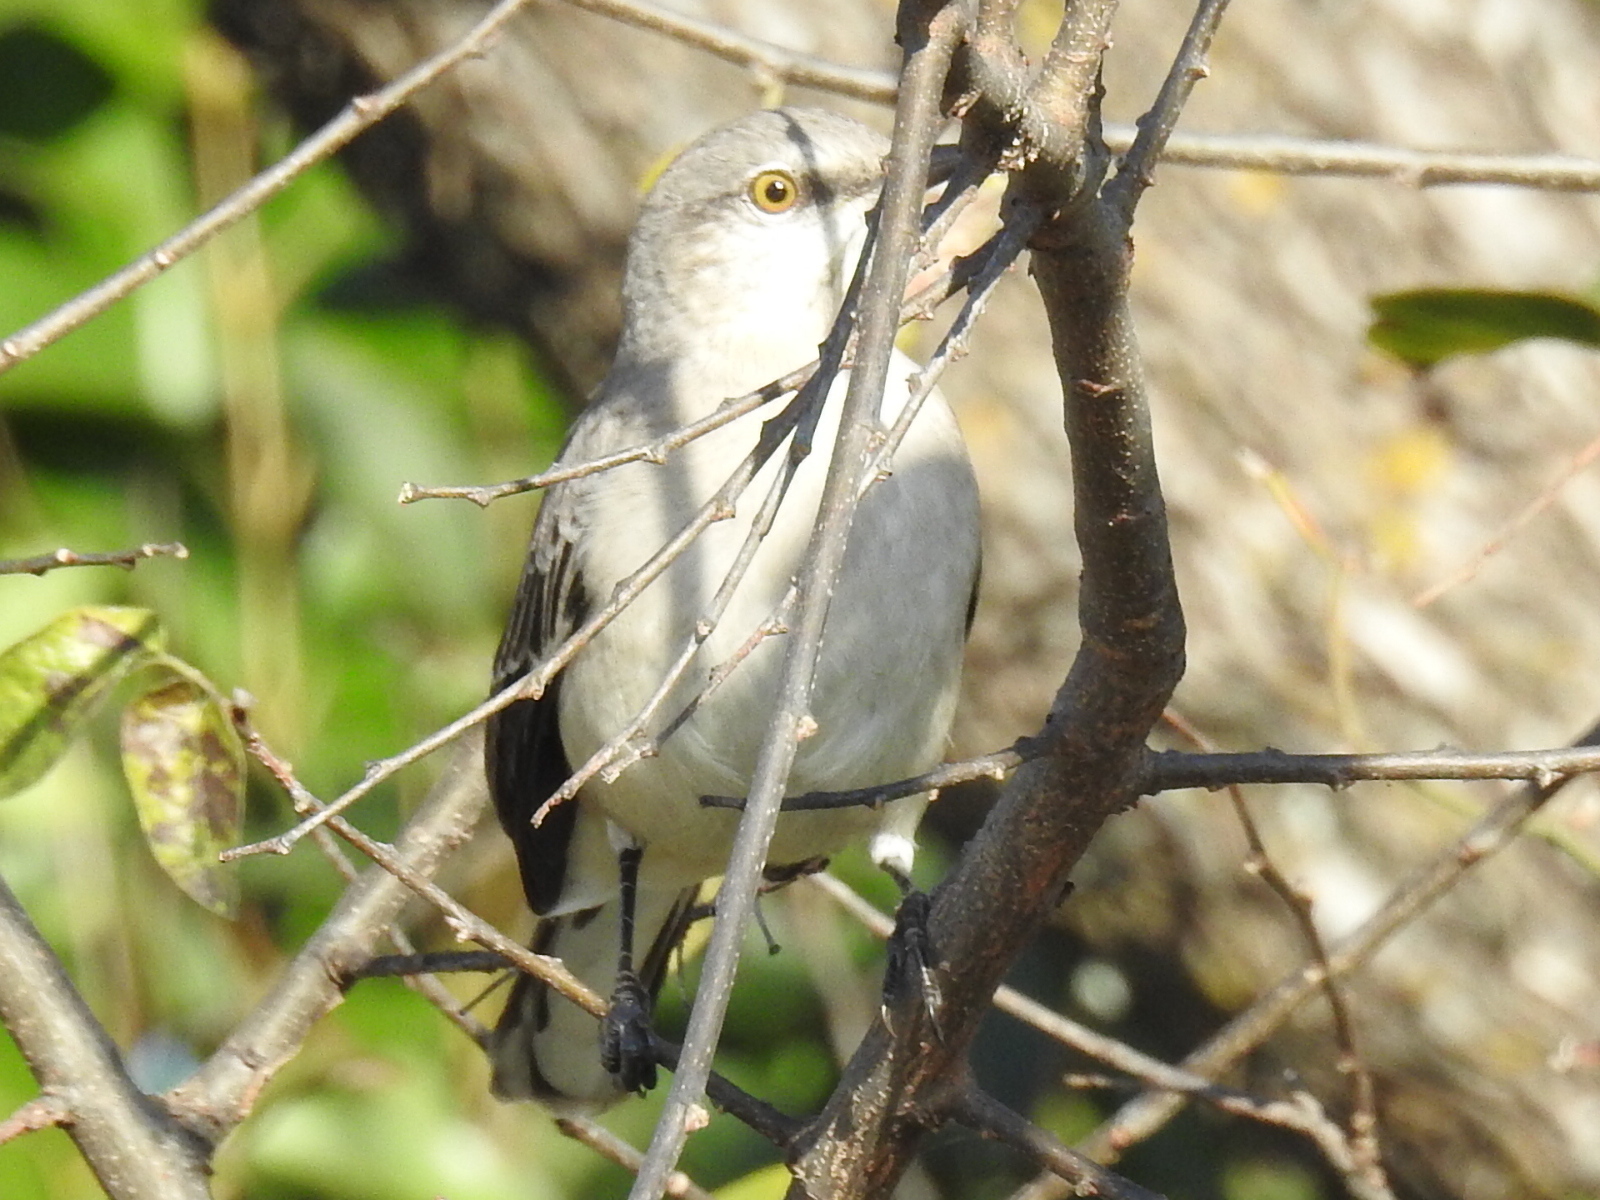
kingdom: Animalia
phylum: Chordata
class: Aves
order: Passeriformes
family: Mimidae
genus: Mimus
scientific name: Mimus polyglottos
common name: Northern mockingbird
